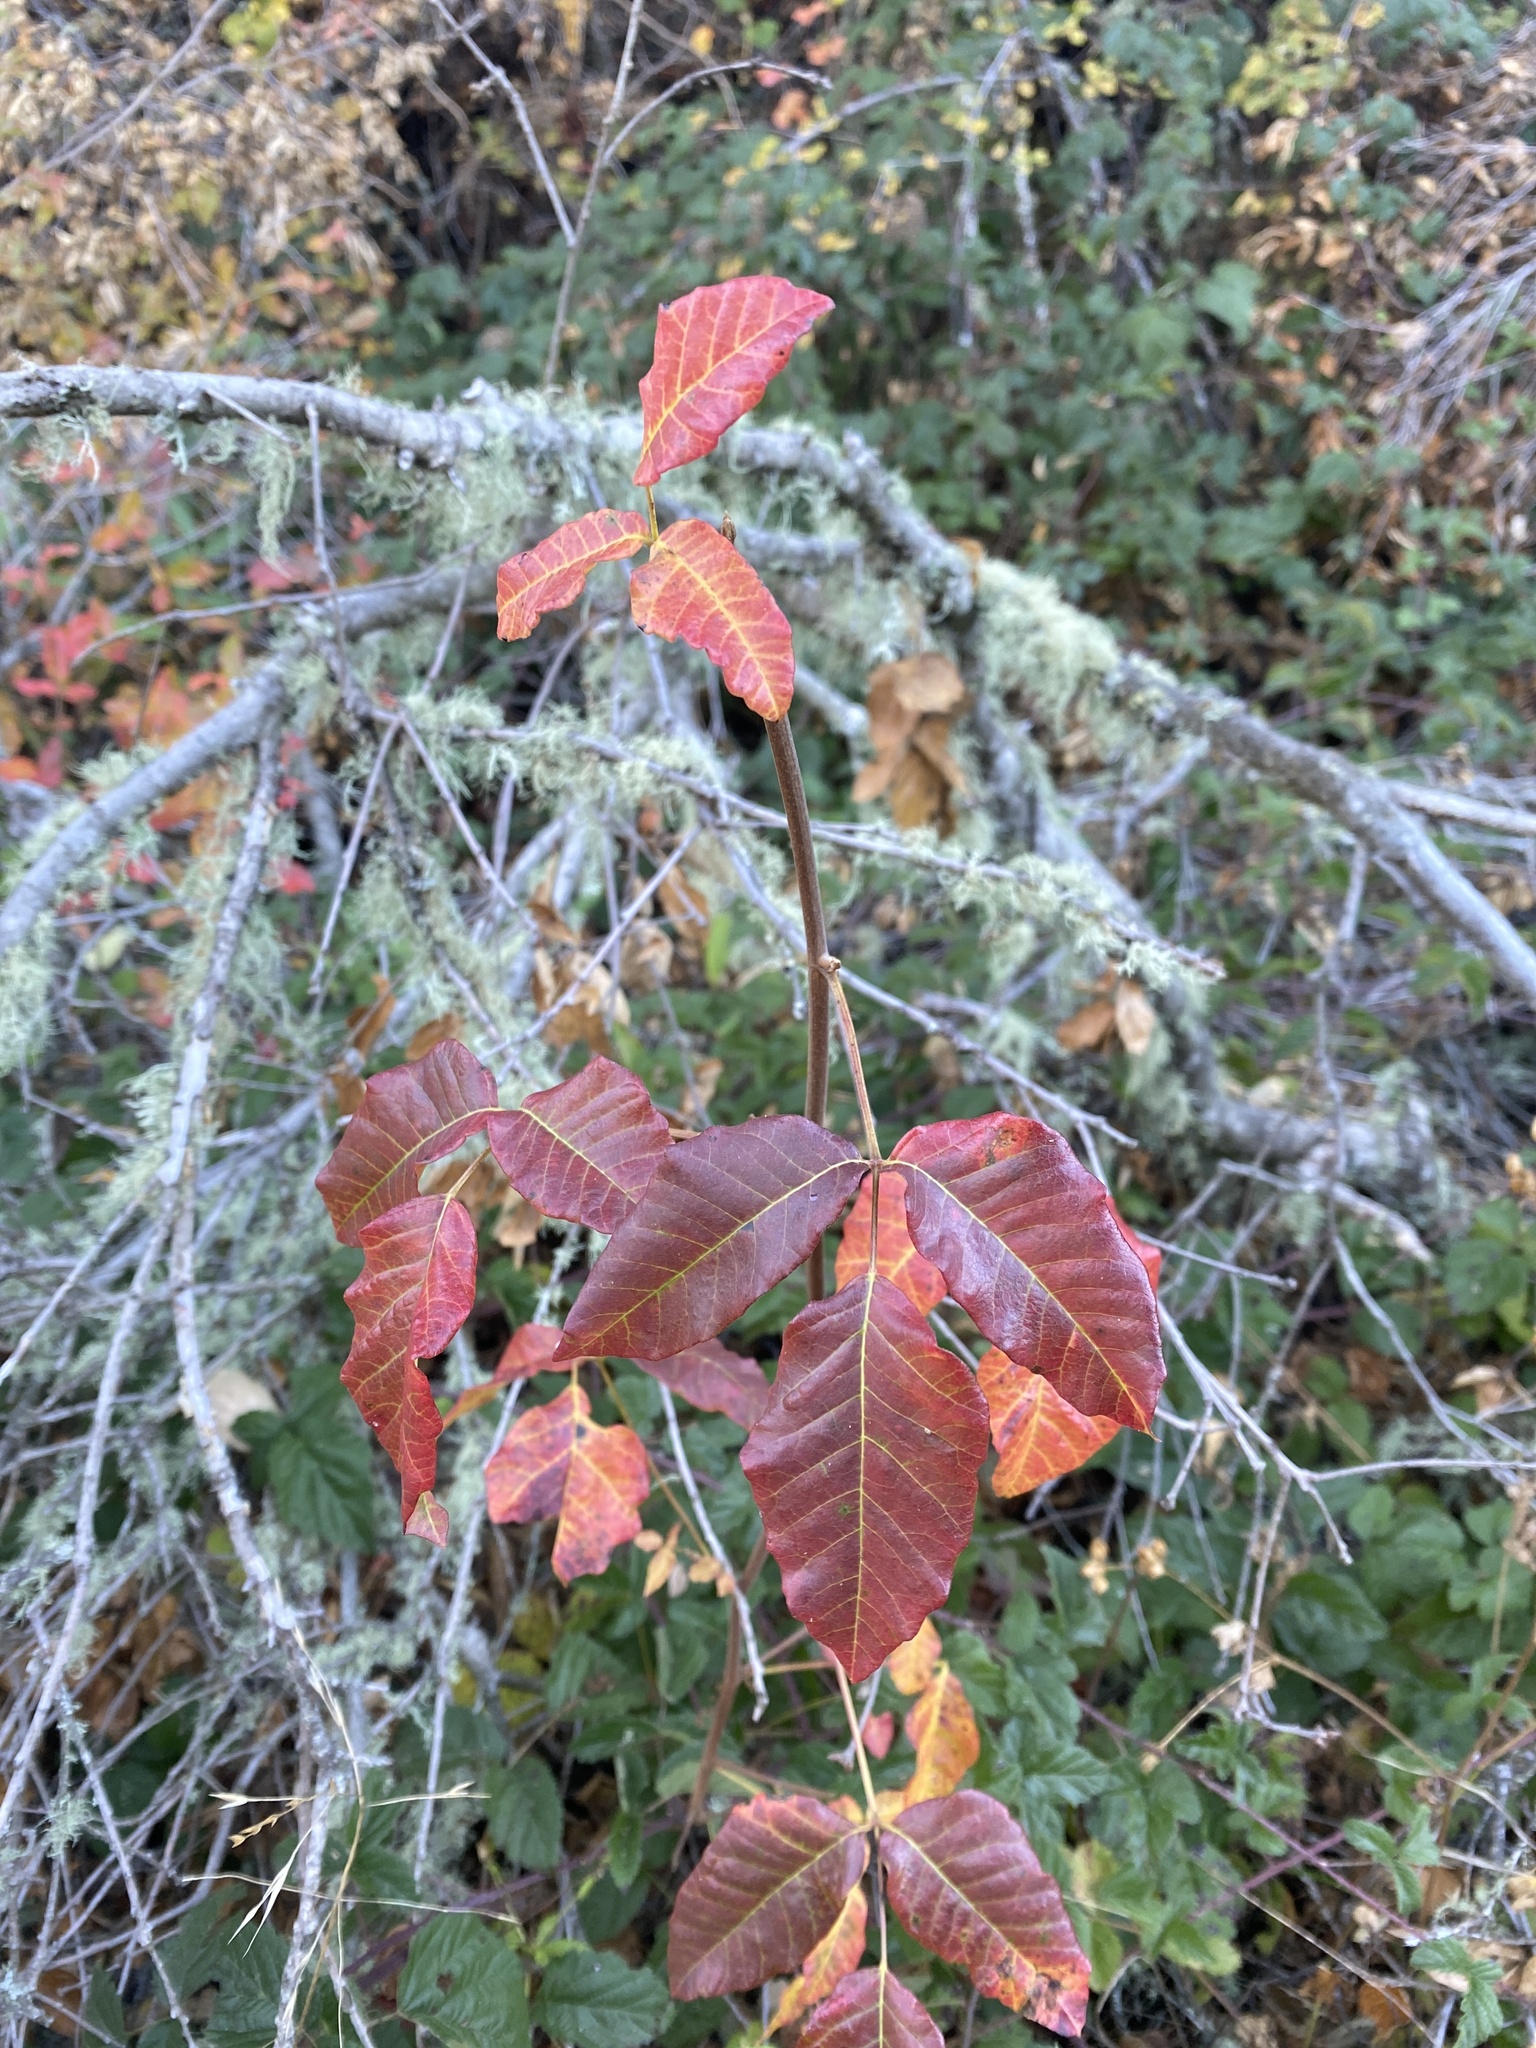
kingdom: Plantae
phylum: Tracheophyta
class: Magnoliopsida
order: Sapindales
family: Anacardiaceae
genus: Toxicodendron
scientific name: Toxicodendron diversilobum
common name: Pacific poison-oak
